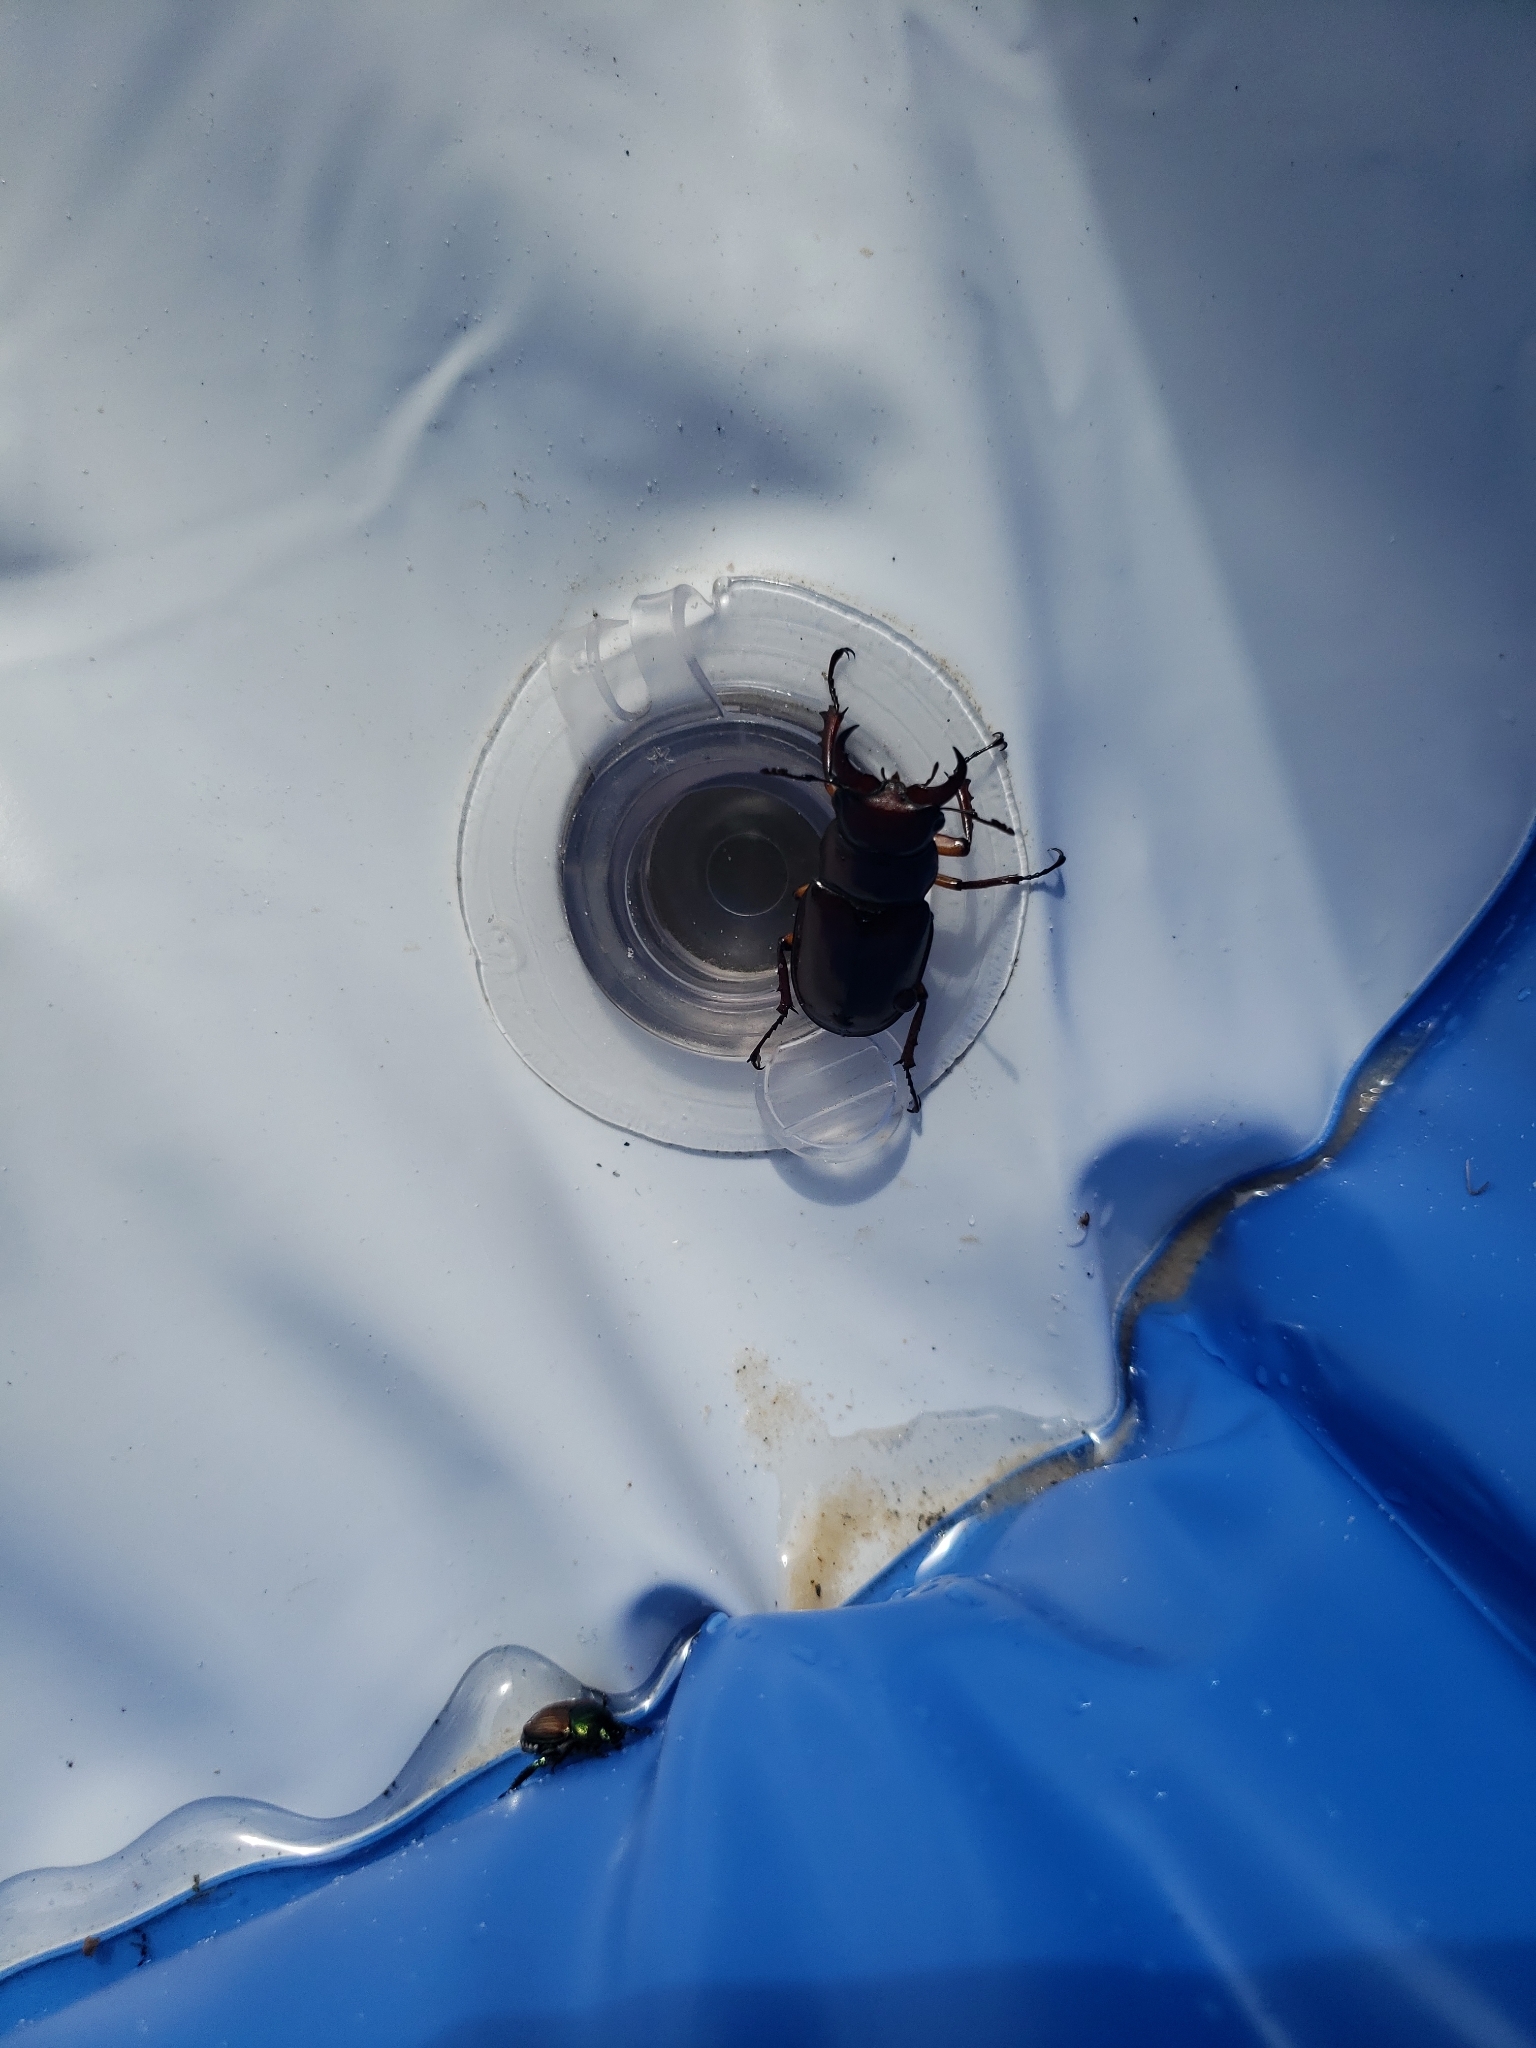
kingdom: Animalia
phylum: Arthropoda
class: Insecta
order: Coleoptera
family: Lucanidae
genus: Lucanus
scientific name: Lucanus capreolus
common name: Stag beetle
